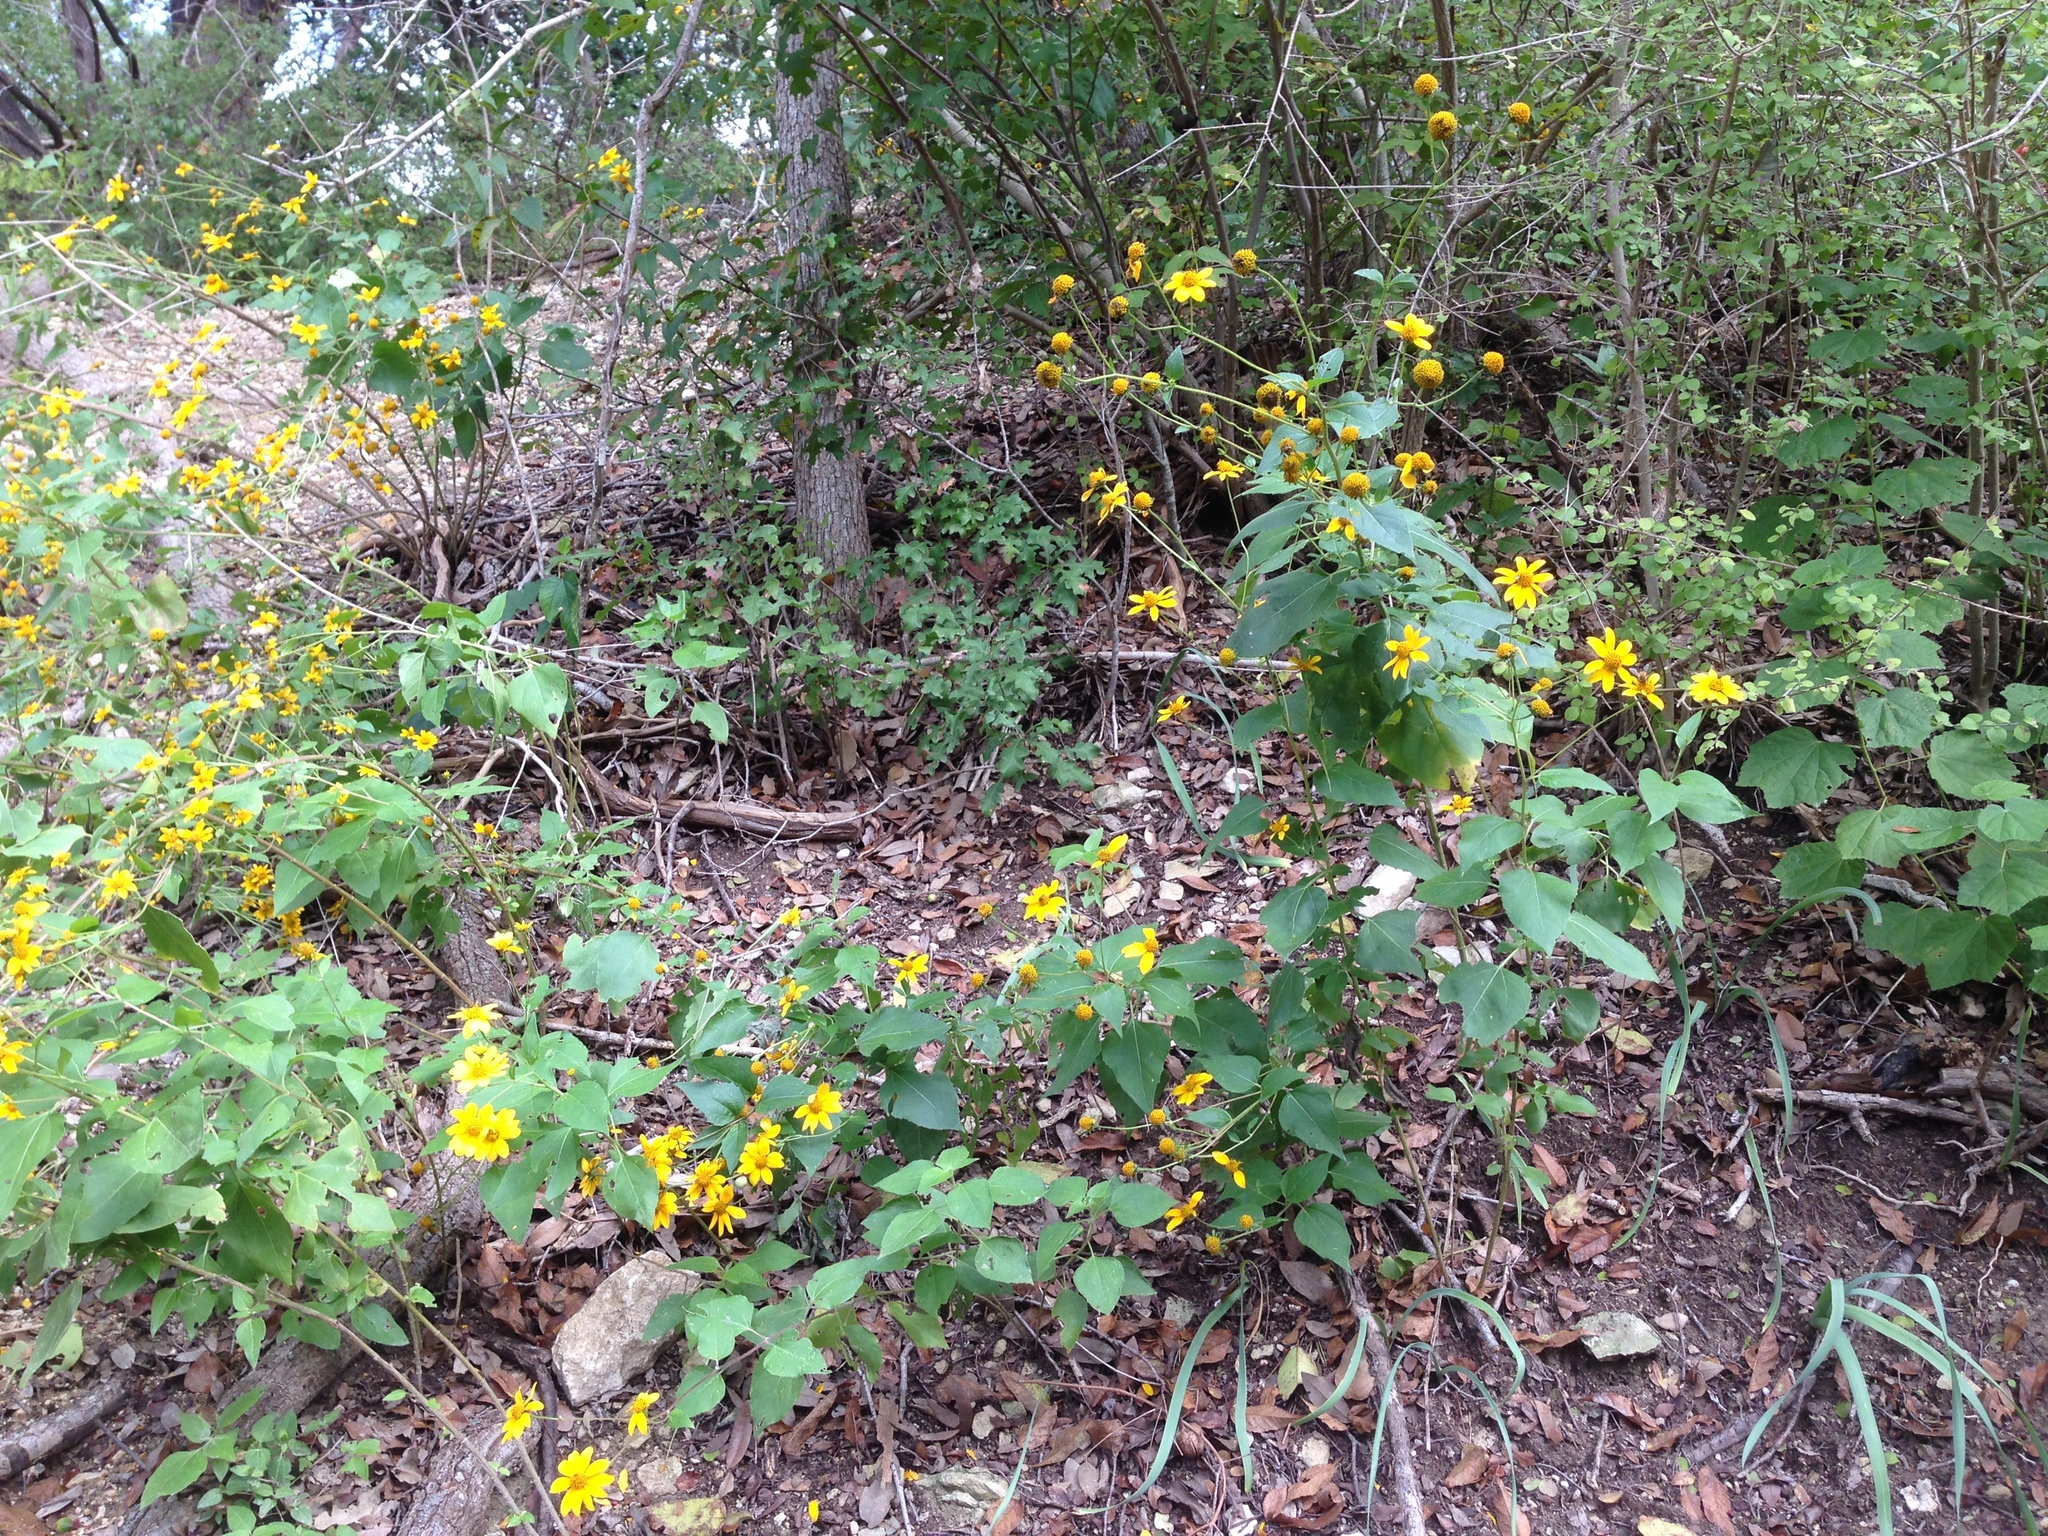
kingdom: Plantae
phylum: Tracheophyta
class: Magnoliopsida
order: Asterales
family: Asteraceae
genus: Viguiera
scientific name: Viguiera dentata
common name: Toothleaf
